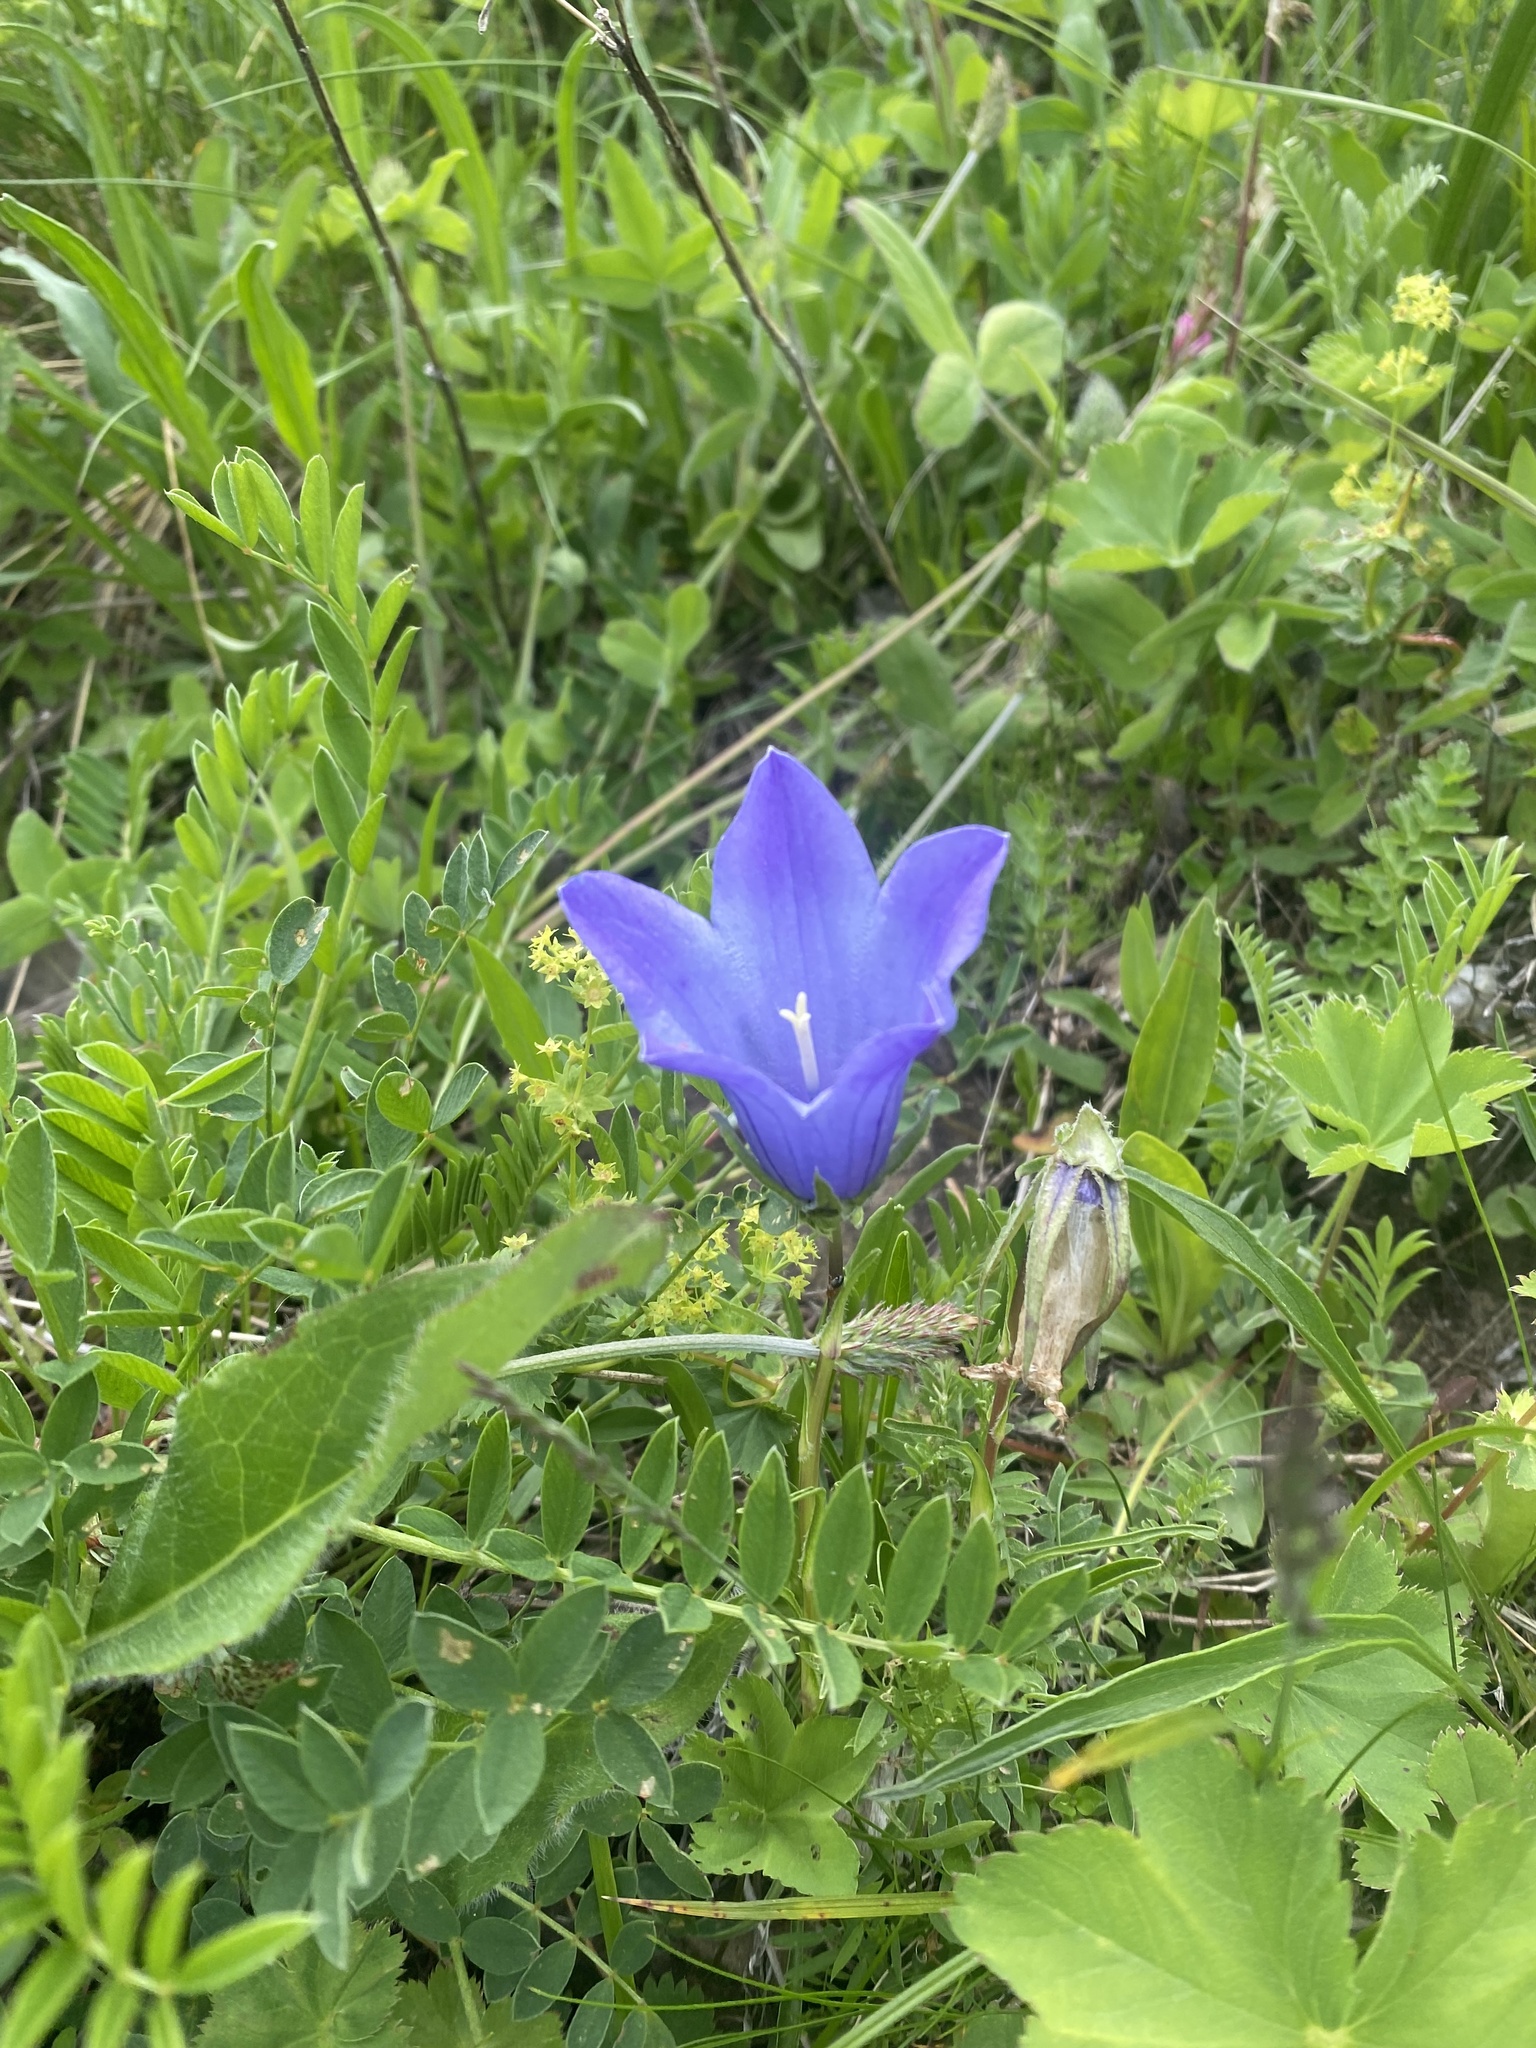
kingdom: Plantae
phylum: Tracheophyta
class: Magnoliopsida
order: Asterales
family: Campanulaceae
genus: Campanula
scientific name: Campanula tridentata
